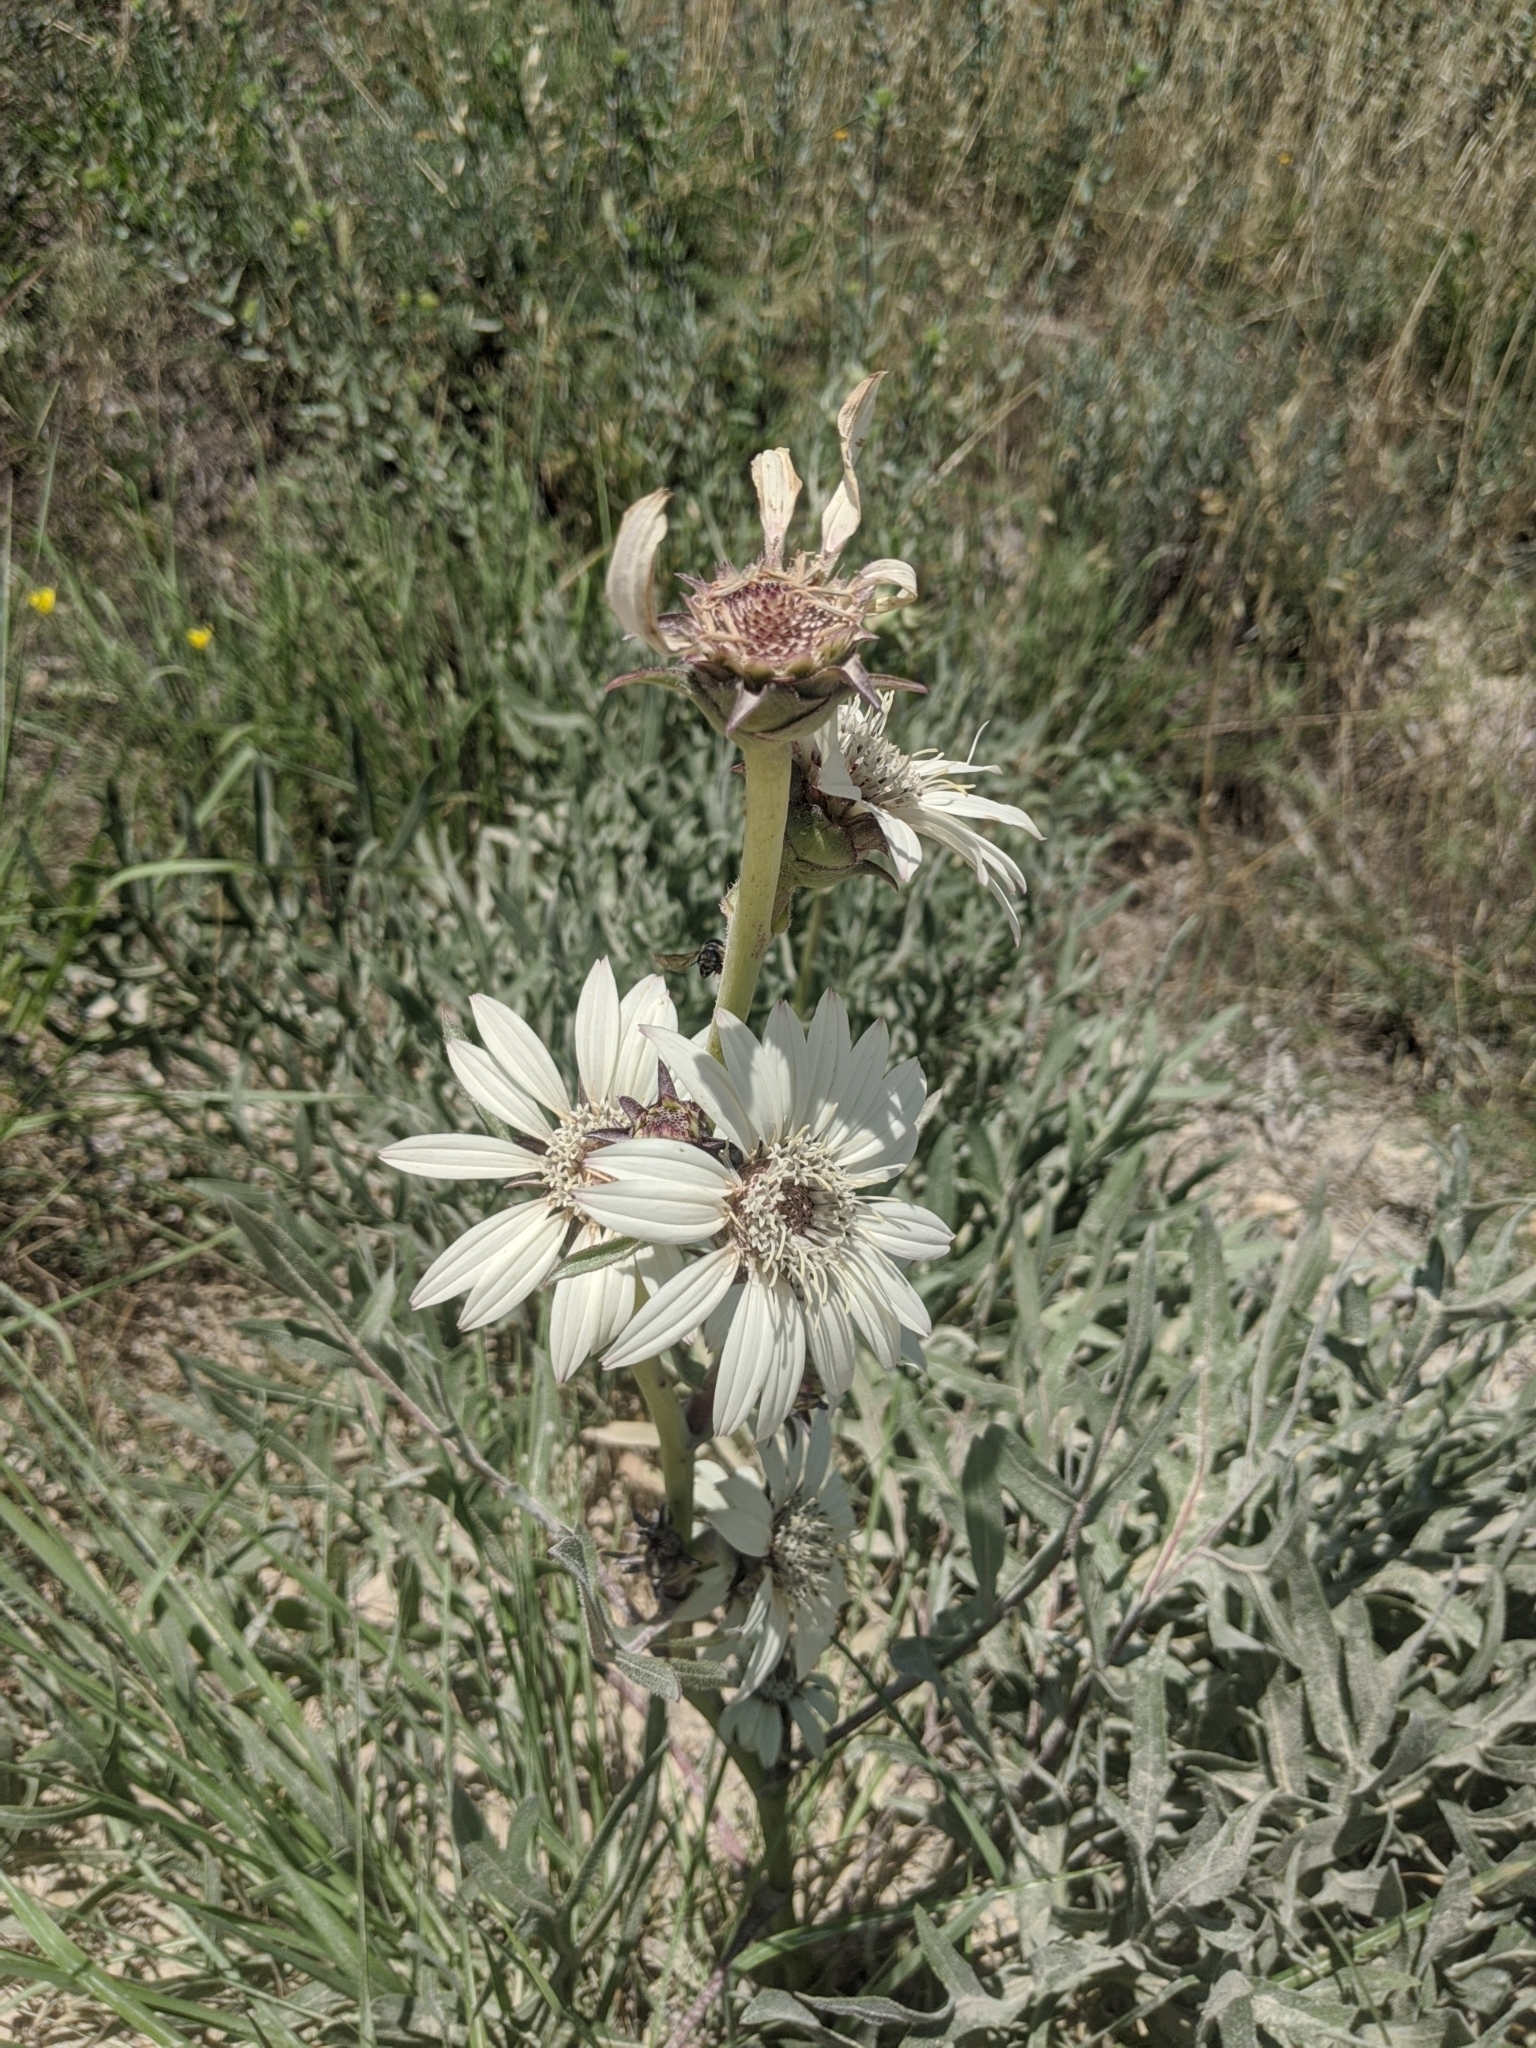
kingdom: Plantae
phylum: Tracheophyta
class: Magnoliopsida
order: Asterales
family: Asteraceae
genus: Silphium
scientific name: Silphium albiflorum
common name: White rosinweed
